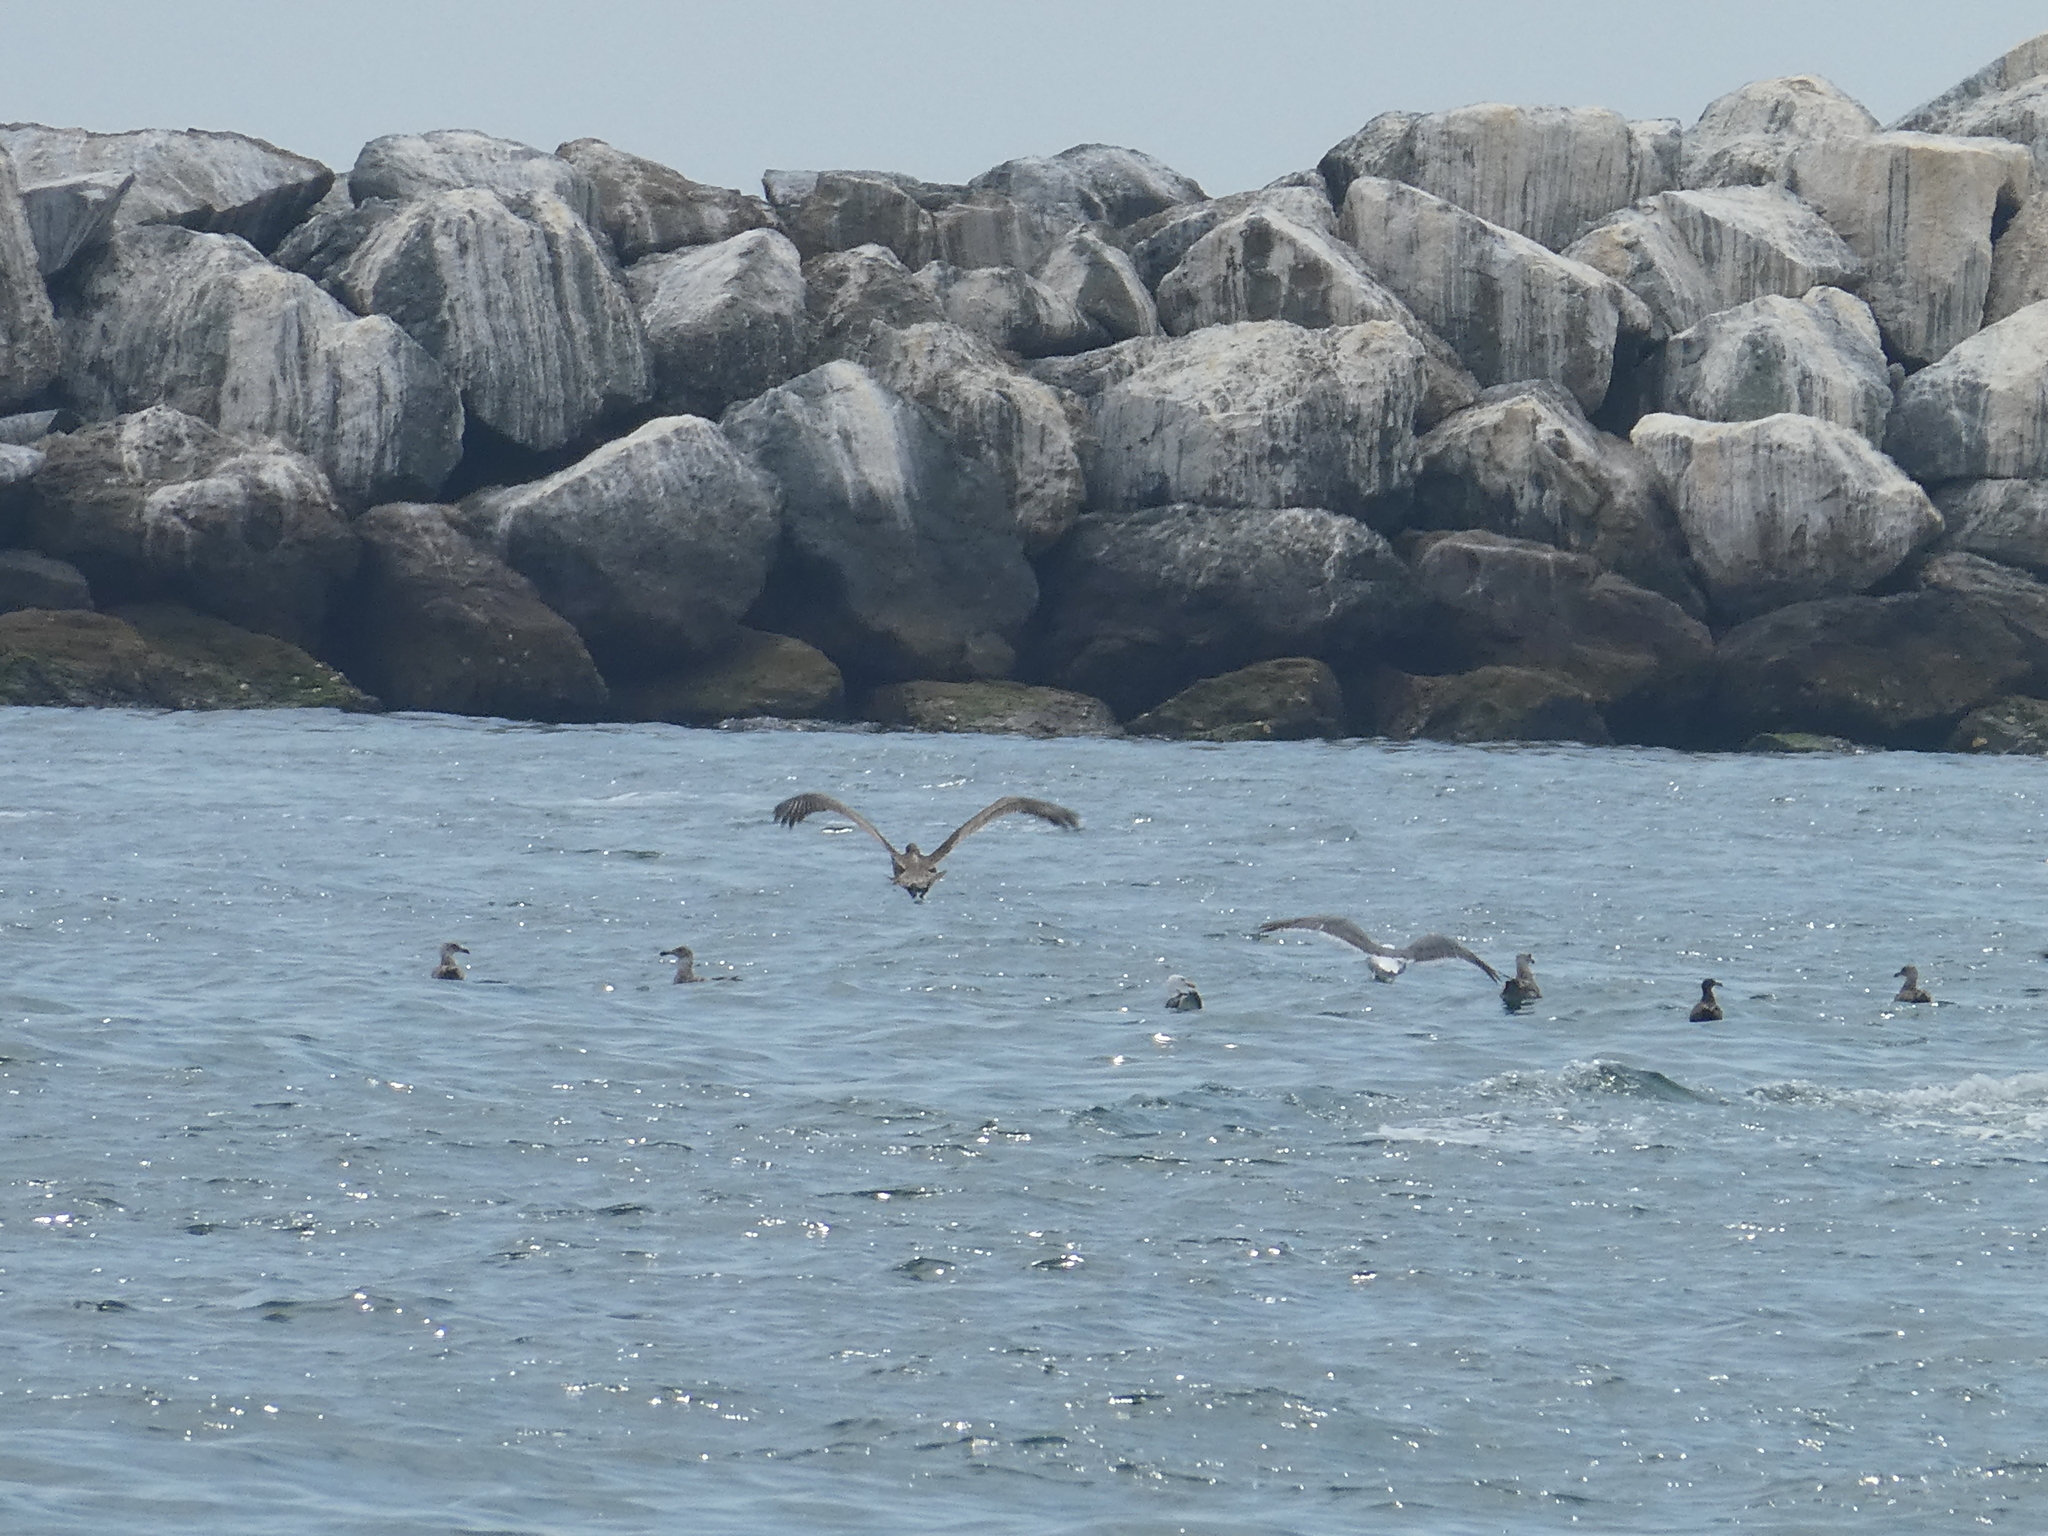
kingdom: Animalia
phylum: Chordata
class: Aves
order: Pelecaniformes
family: Pelecanidae
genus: Pelecanus
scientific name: Pelecanus occidentalis
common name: Brown pelican
